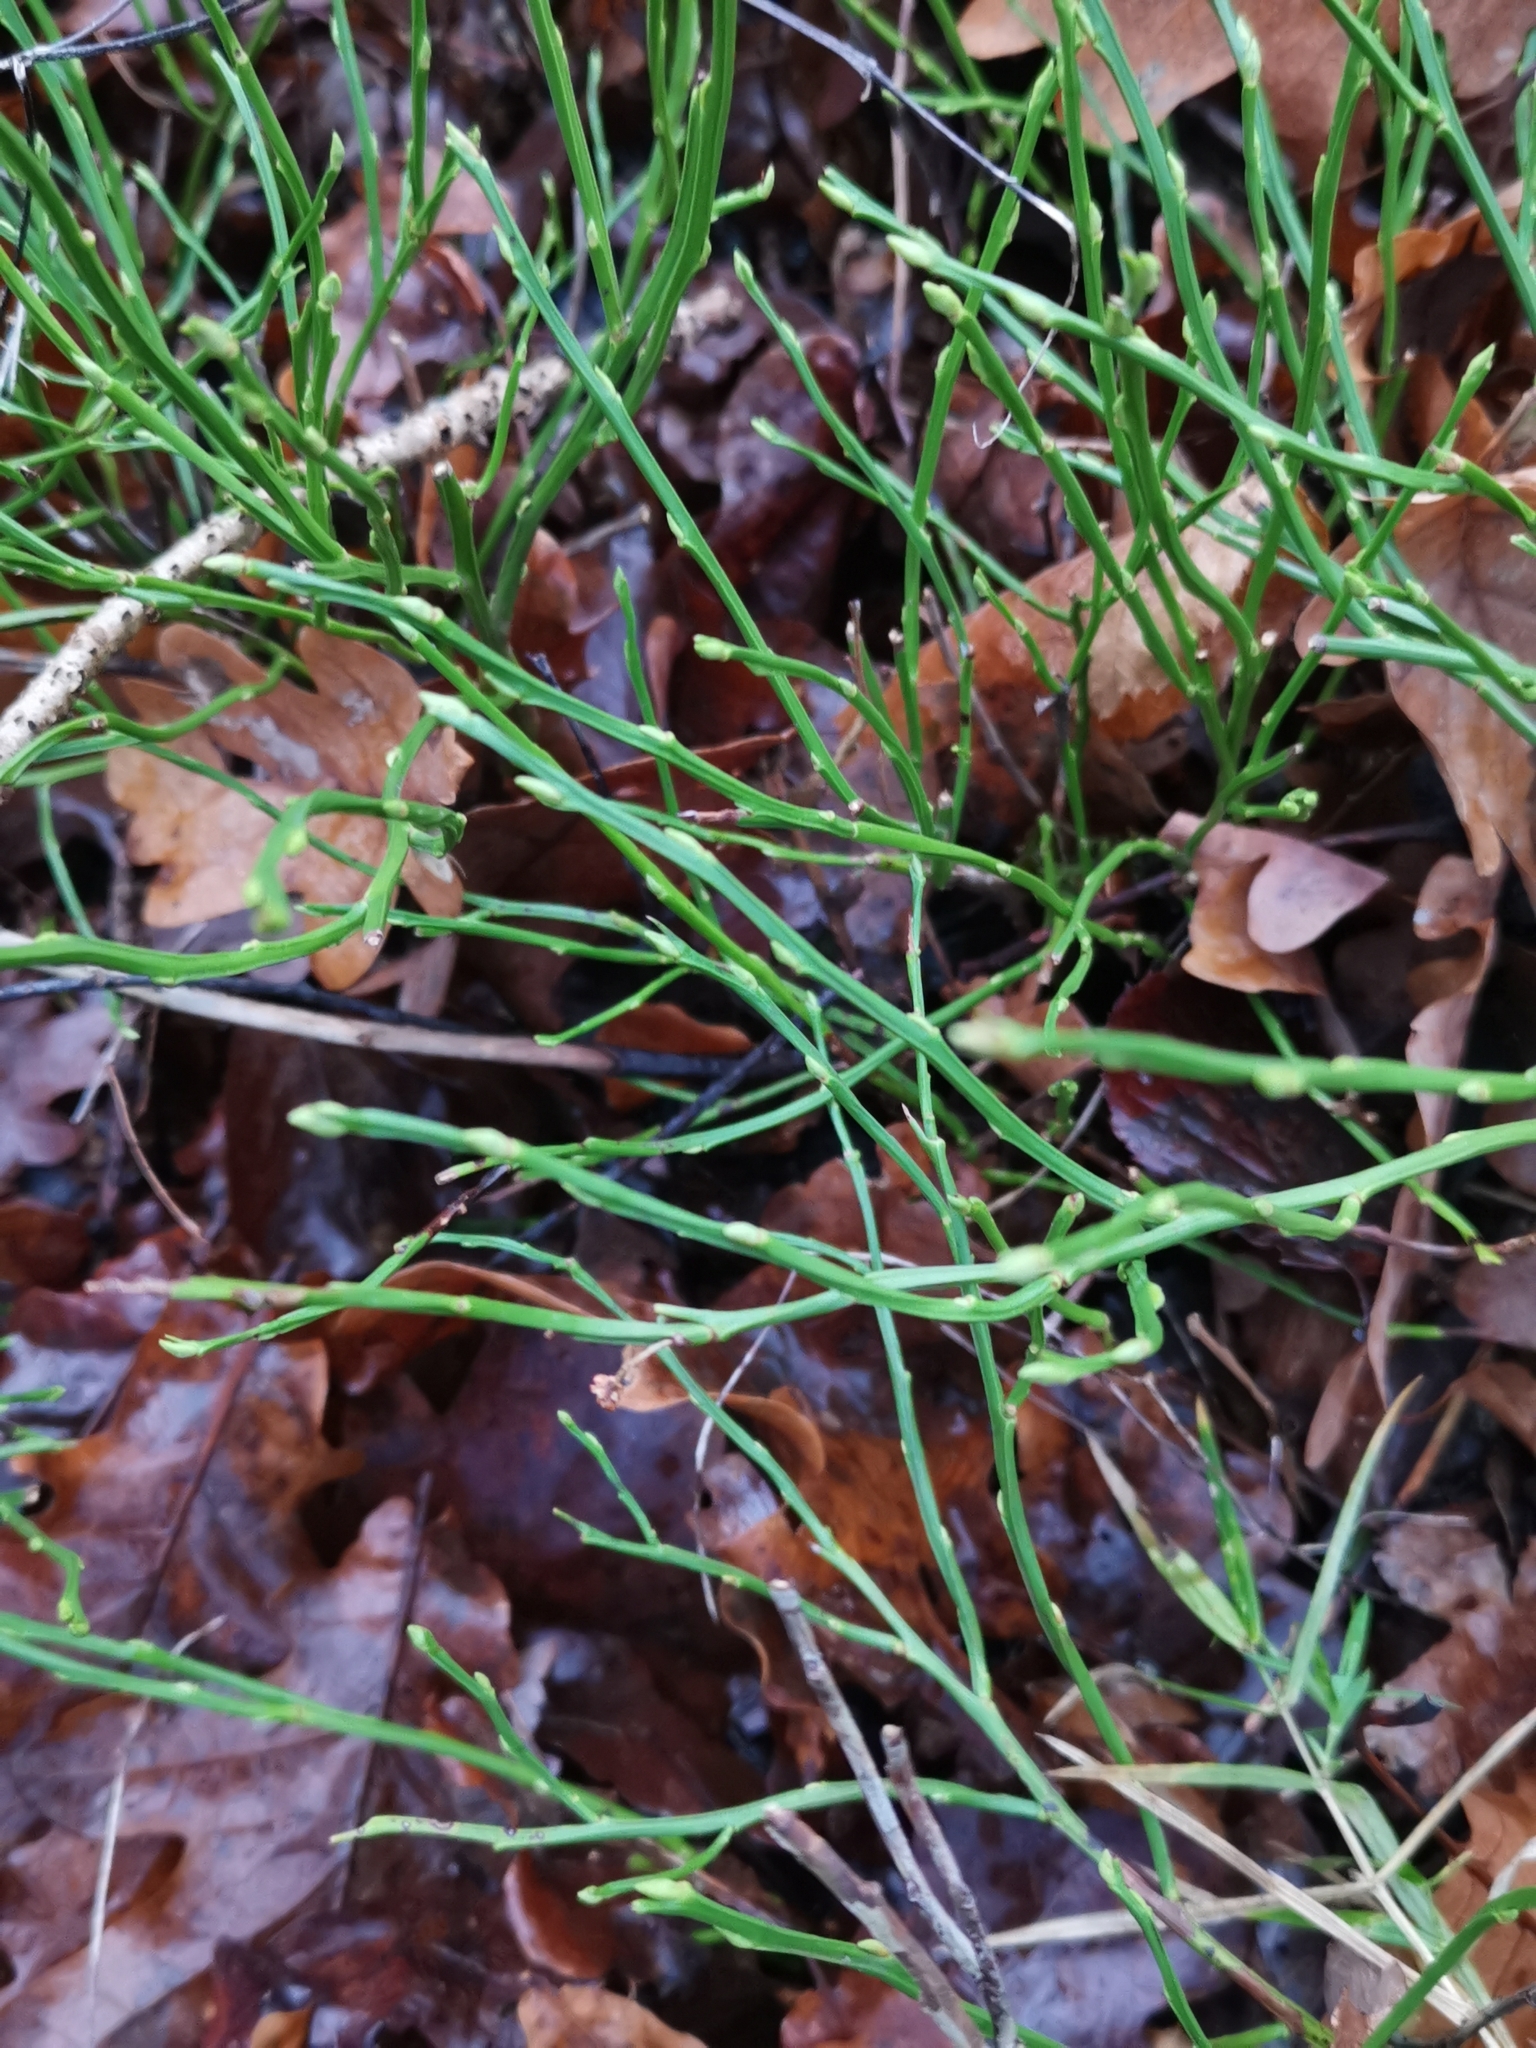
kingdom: Plantae
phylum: Tracheophyta
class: Magnoliopsida
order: Ericales
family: Ericaceae
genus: Vaccinium
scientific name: Vaccinium myrtillus
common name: Bilberry
